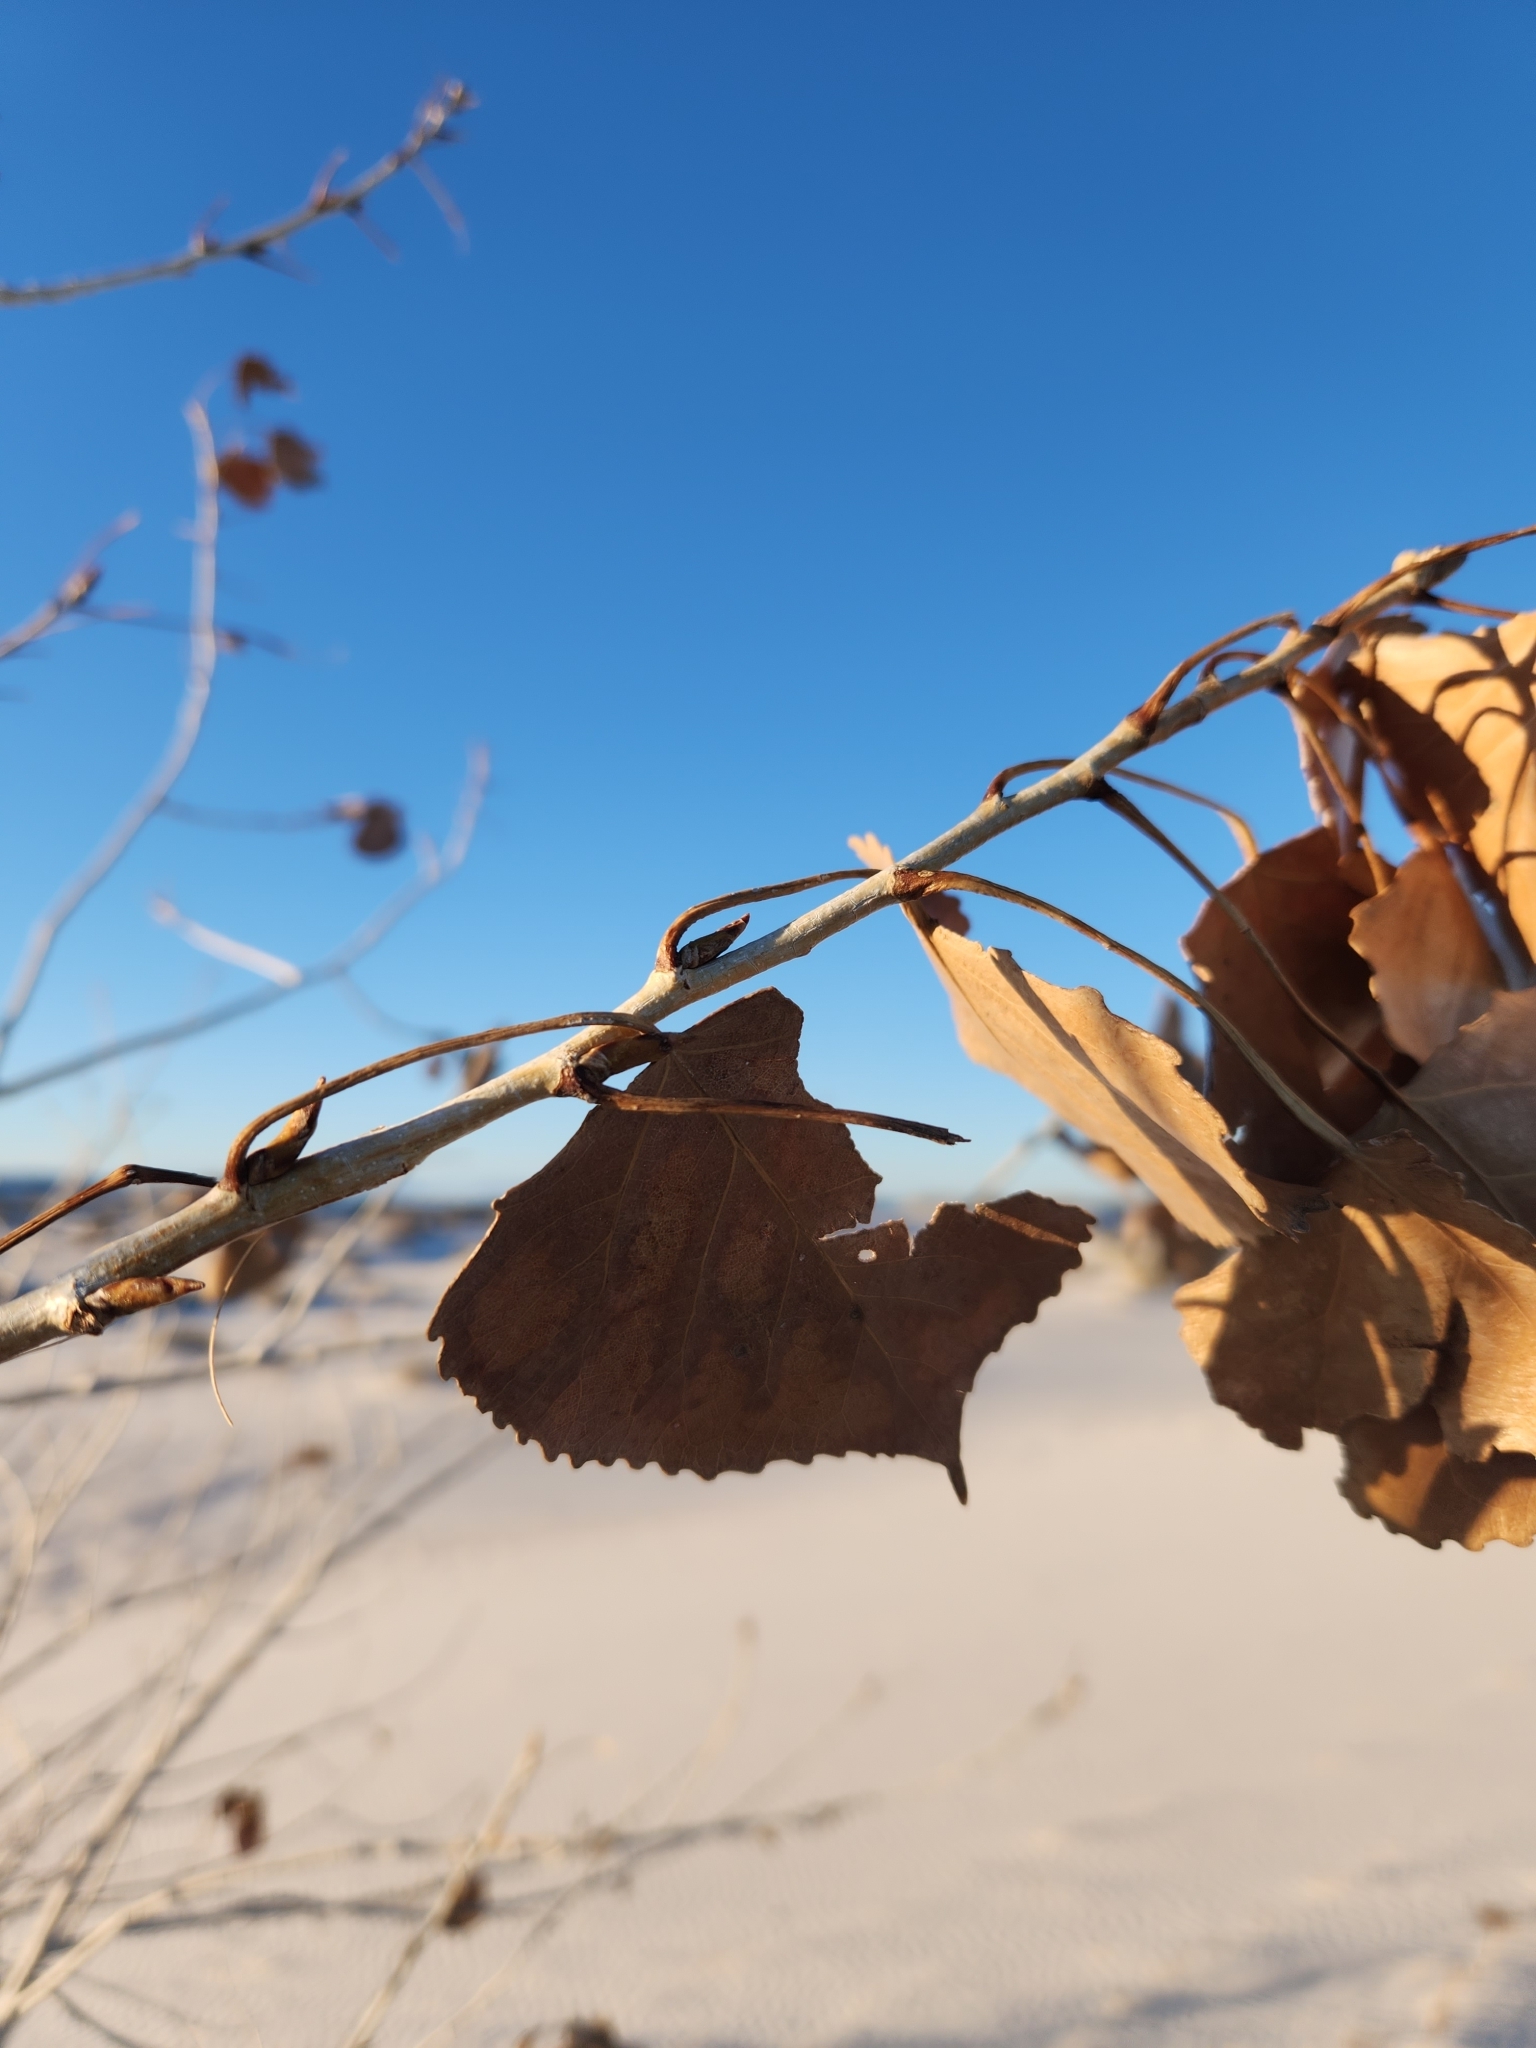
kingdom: Plantae
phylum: Tracheophyta
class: Magnoliopsida
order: Malpighiales
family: Salicaceae
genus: Populus
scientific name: Populus deltoides
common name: Eastern cottonwood
